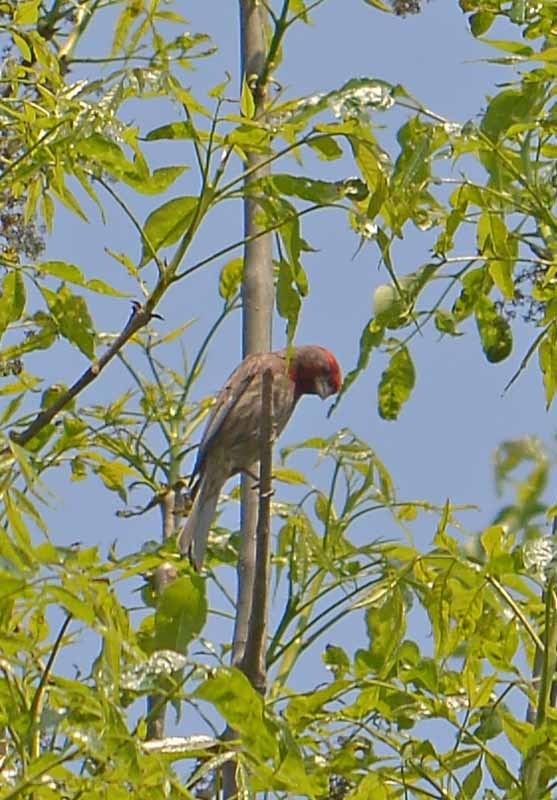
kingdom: Animalia
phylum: Chordata
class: Aves
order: Passeriformes
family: Fringillidae
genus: Haemorhous
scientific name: Haemorhous mexicanus
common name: House finch
